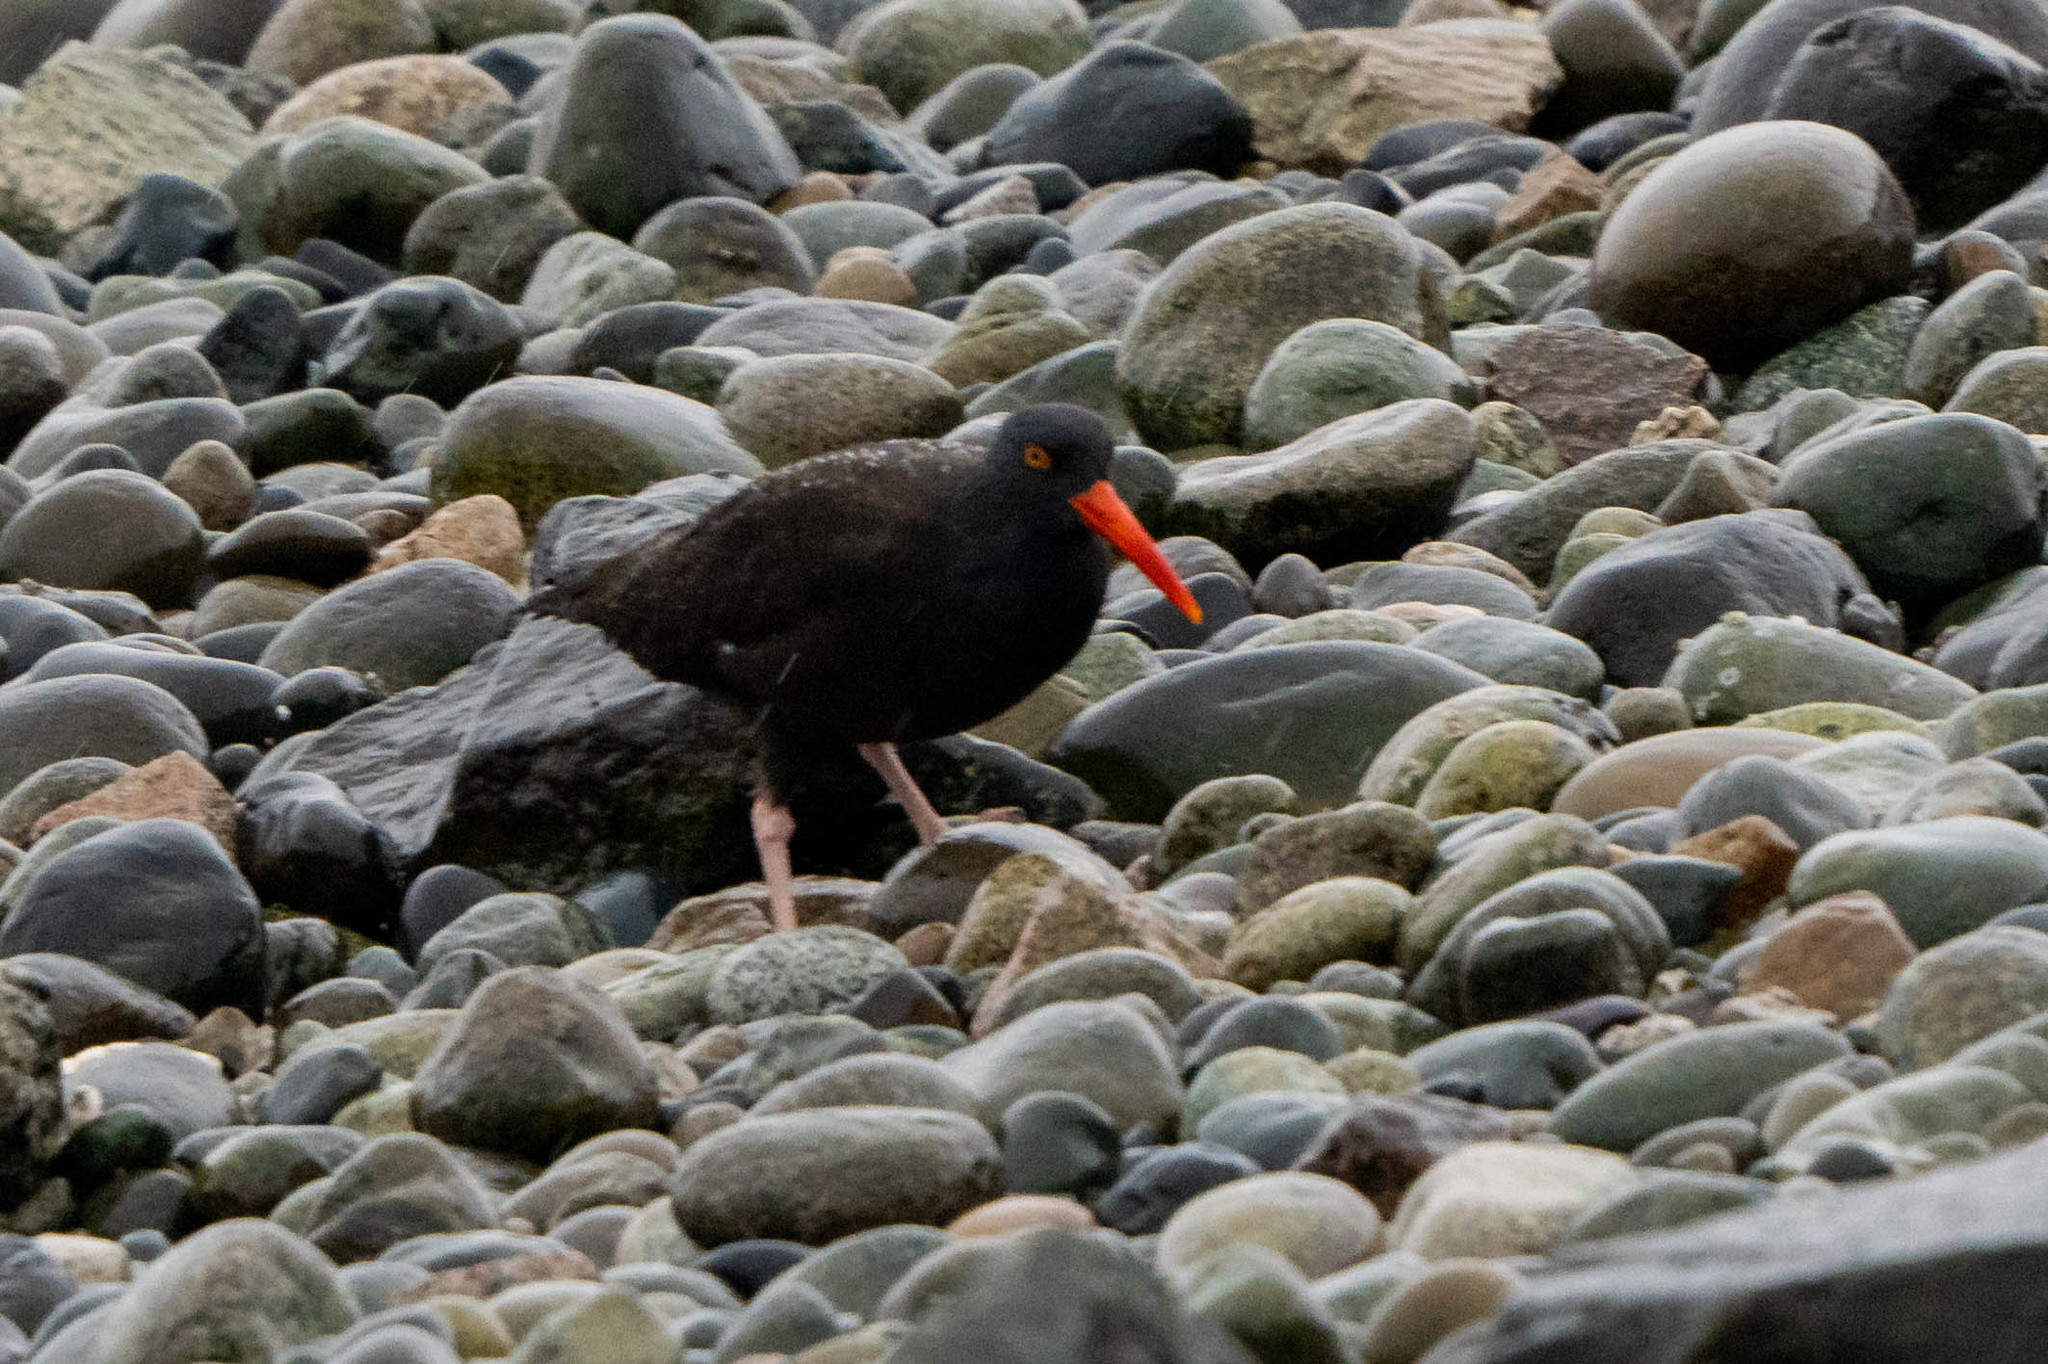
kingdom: Animalia
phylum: Chordata
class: Aves
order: Charadriiformes
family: Haematopodidae
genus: Haematopus
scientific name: Haematopus bachmani
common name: Black oystercatcher
